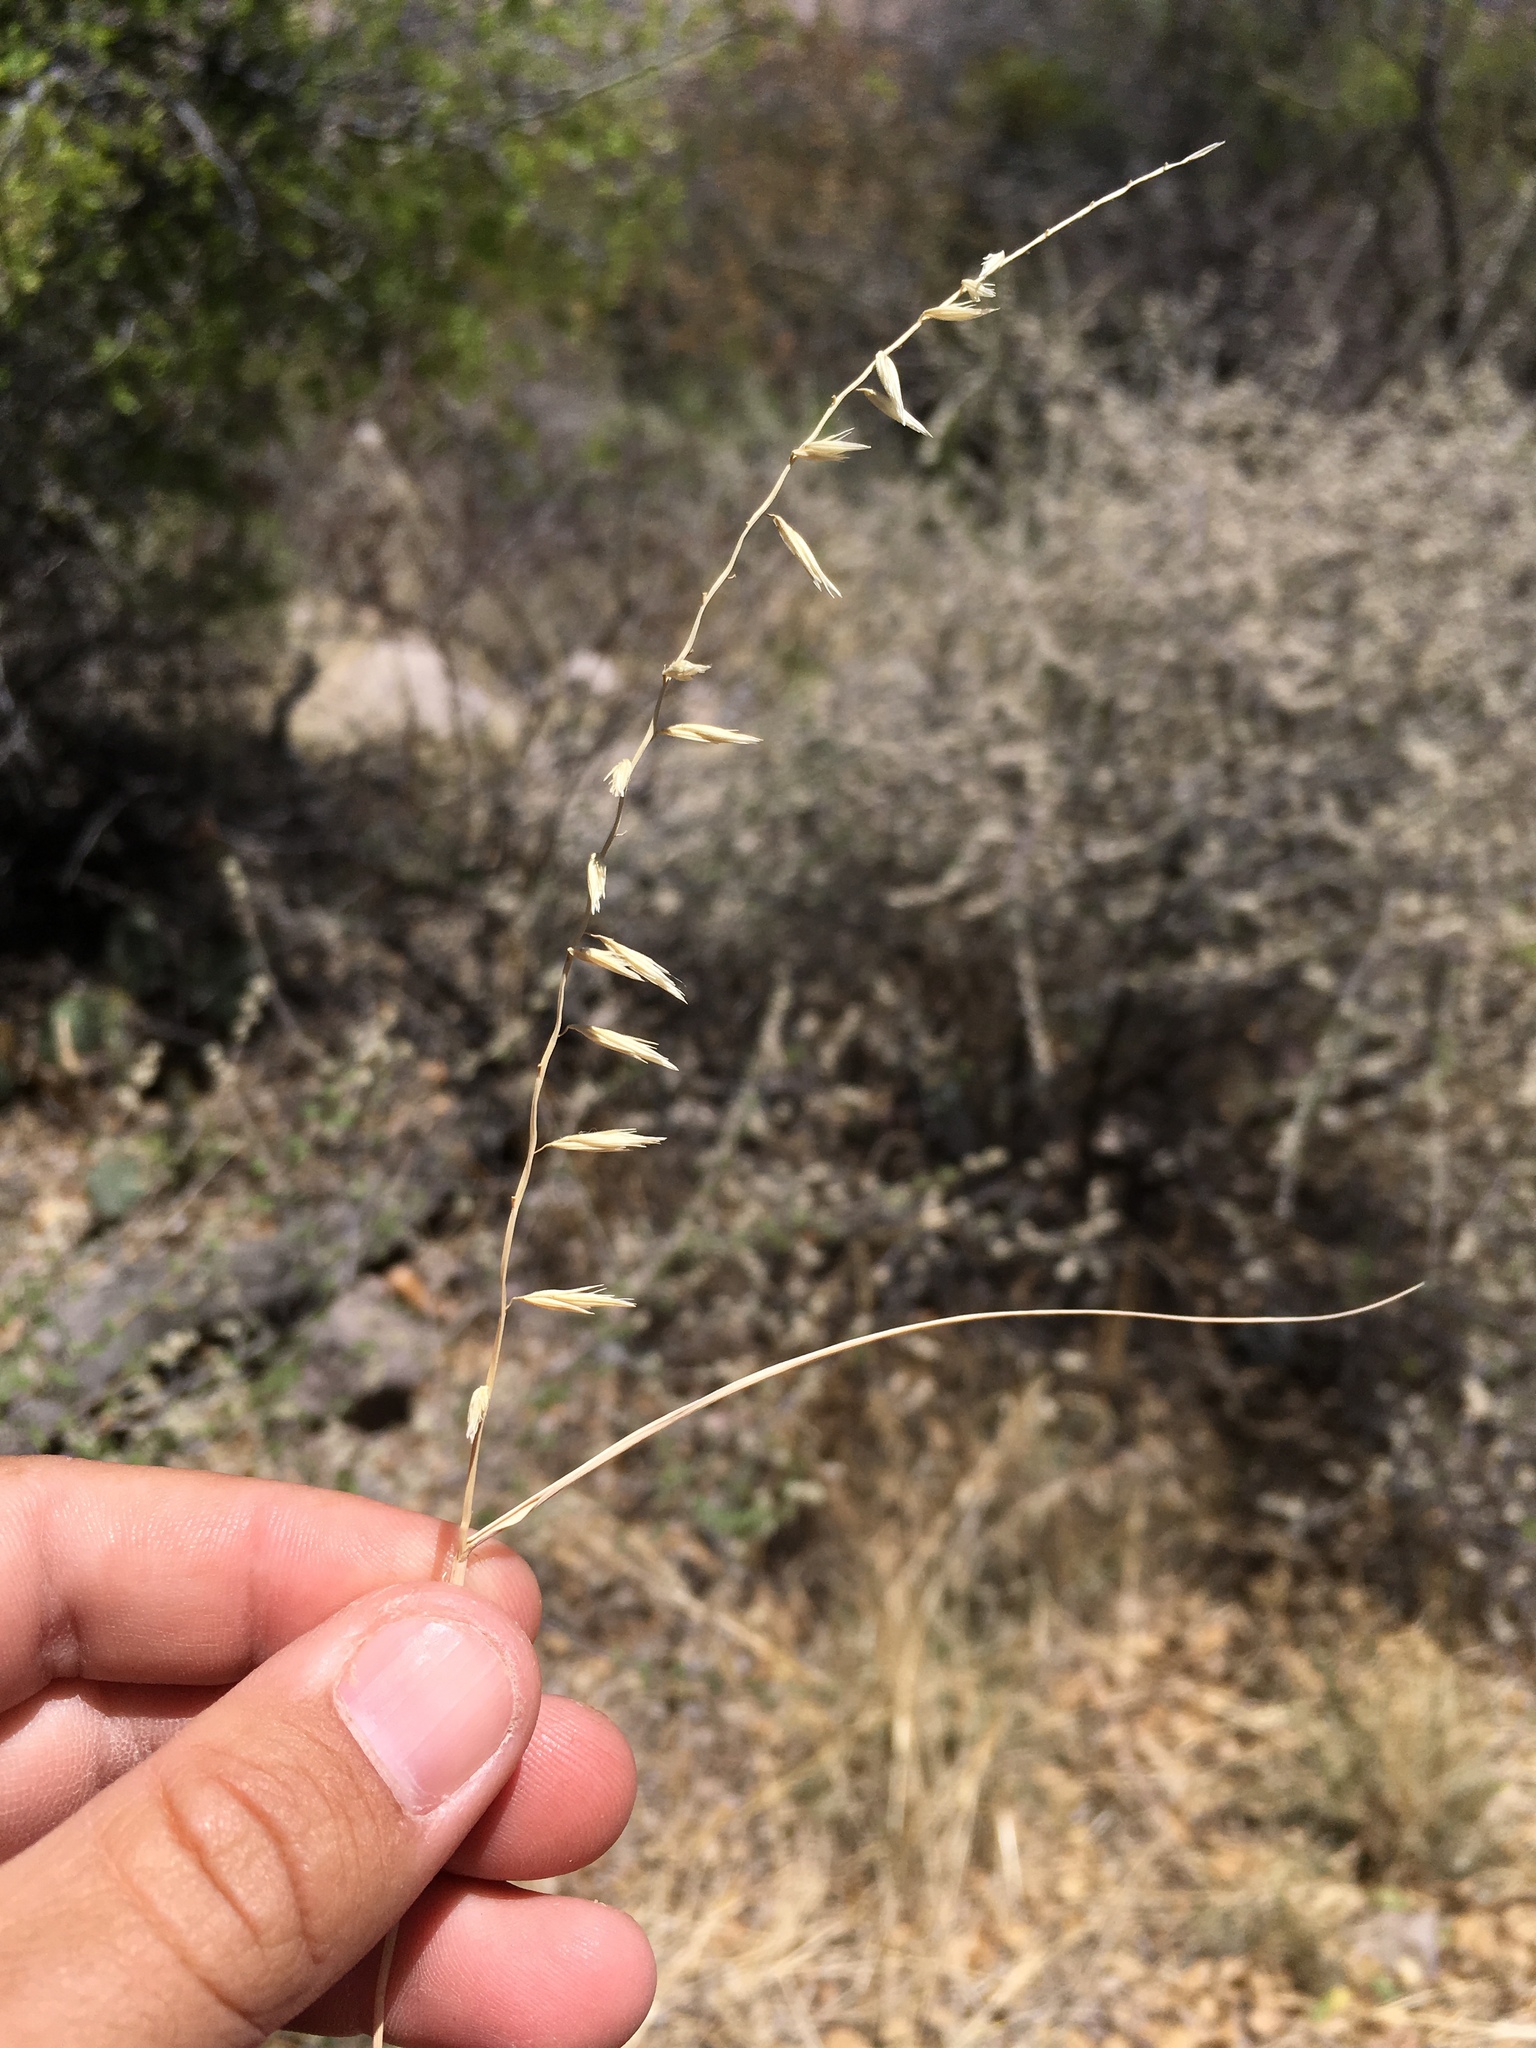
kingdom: Plantae
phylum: Tracheophyta
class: Liliopsida
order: Poales
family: Poaceae
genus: Bouteloua
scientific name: Bouteloua curtipendula
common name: Side-oats grama
